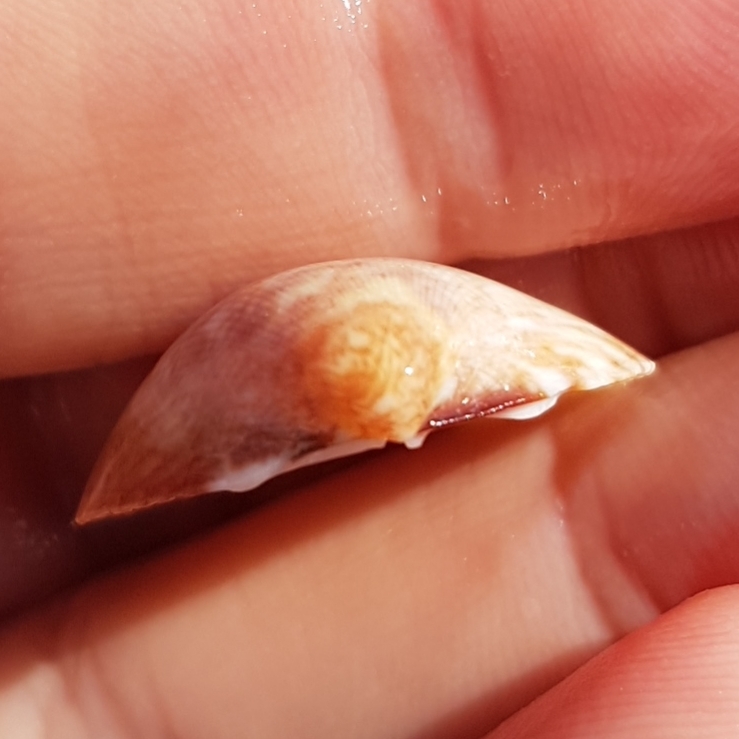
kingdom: Animalia
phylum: Mollusca
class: Bivalvia
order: Cardiida
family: Cardiidae
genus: Laevicardium
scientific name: Laevicardium crassum
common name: Norway cockle
